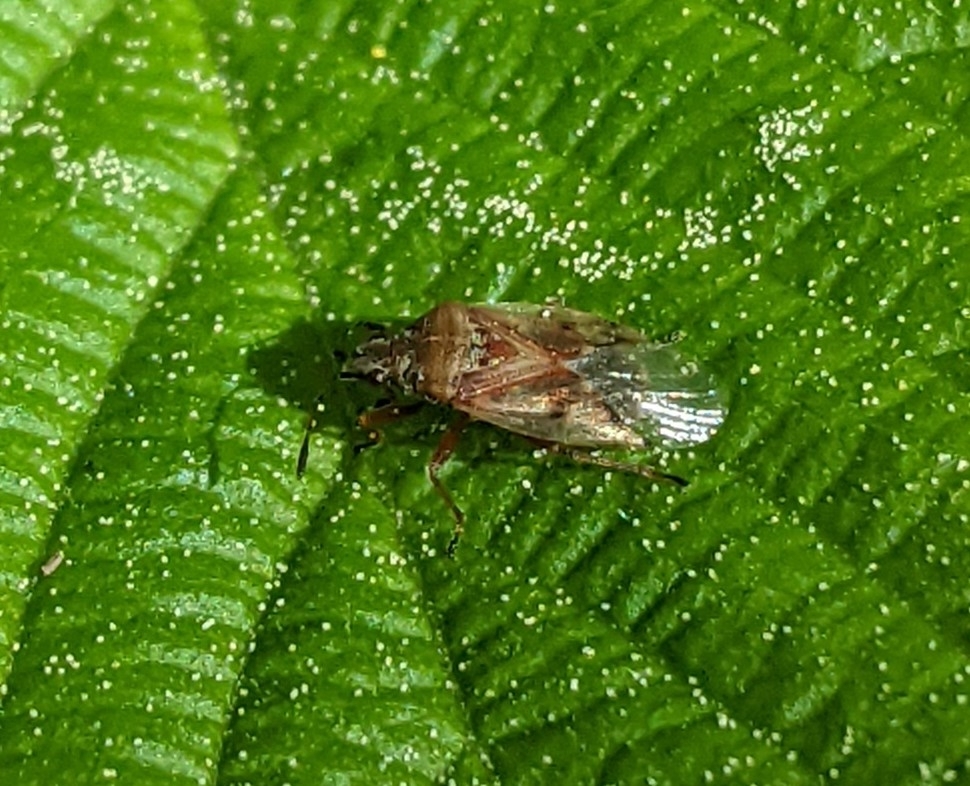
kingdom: Animalia
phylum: Arthropoda
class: Insecta
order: Hemiptera
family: Lygaeidae
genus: Kleidocerys
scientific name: Kleidocerys resedae
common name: Birch catkin bug
